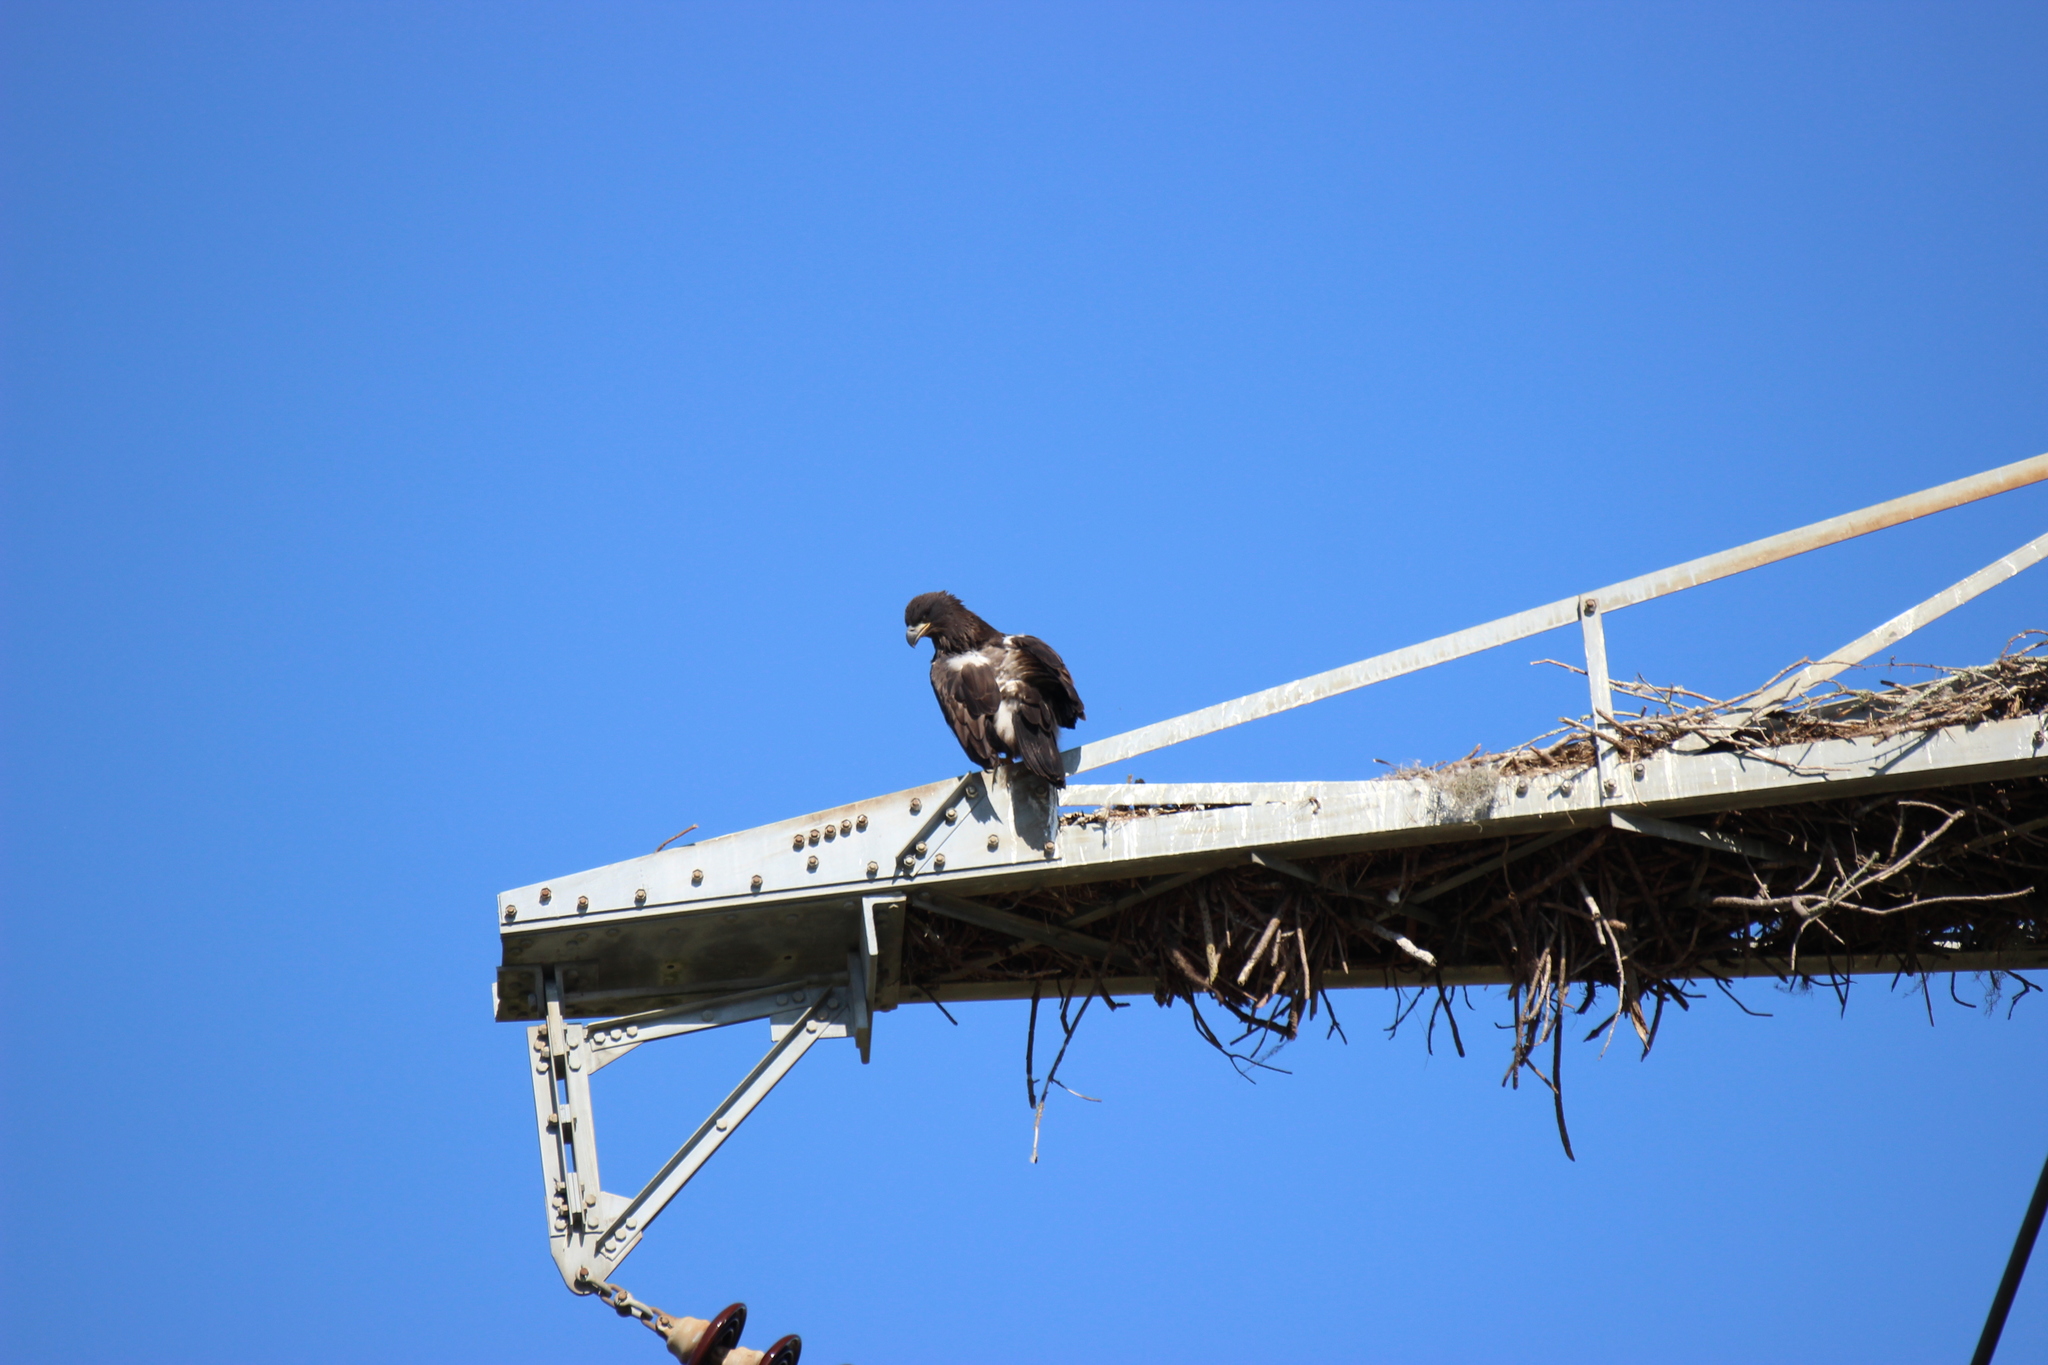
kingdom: Animalia
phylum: Chordata
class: Aves
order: Accipitriformes
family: Accipitridae
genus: Haliaeetus
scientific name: Haliaeetus leucocephalus
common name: Bald eagle
